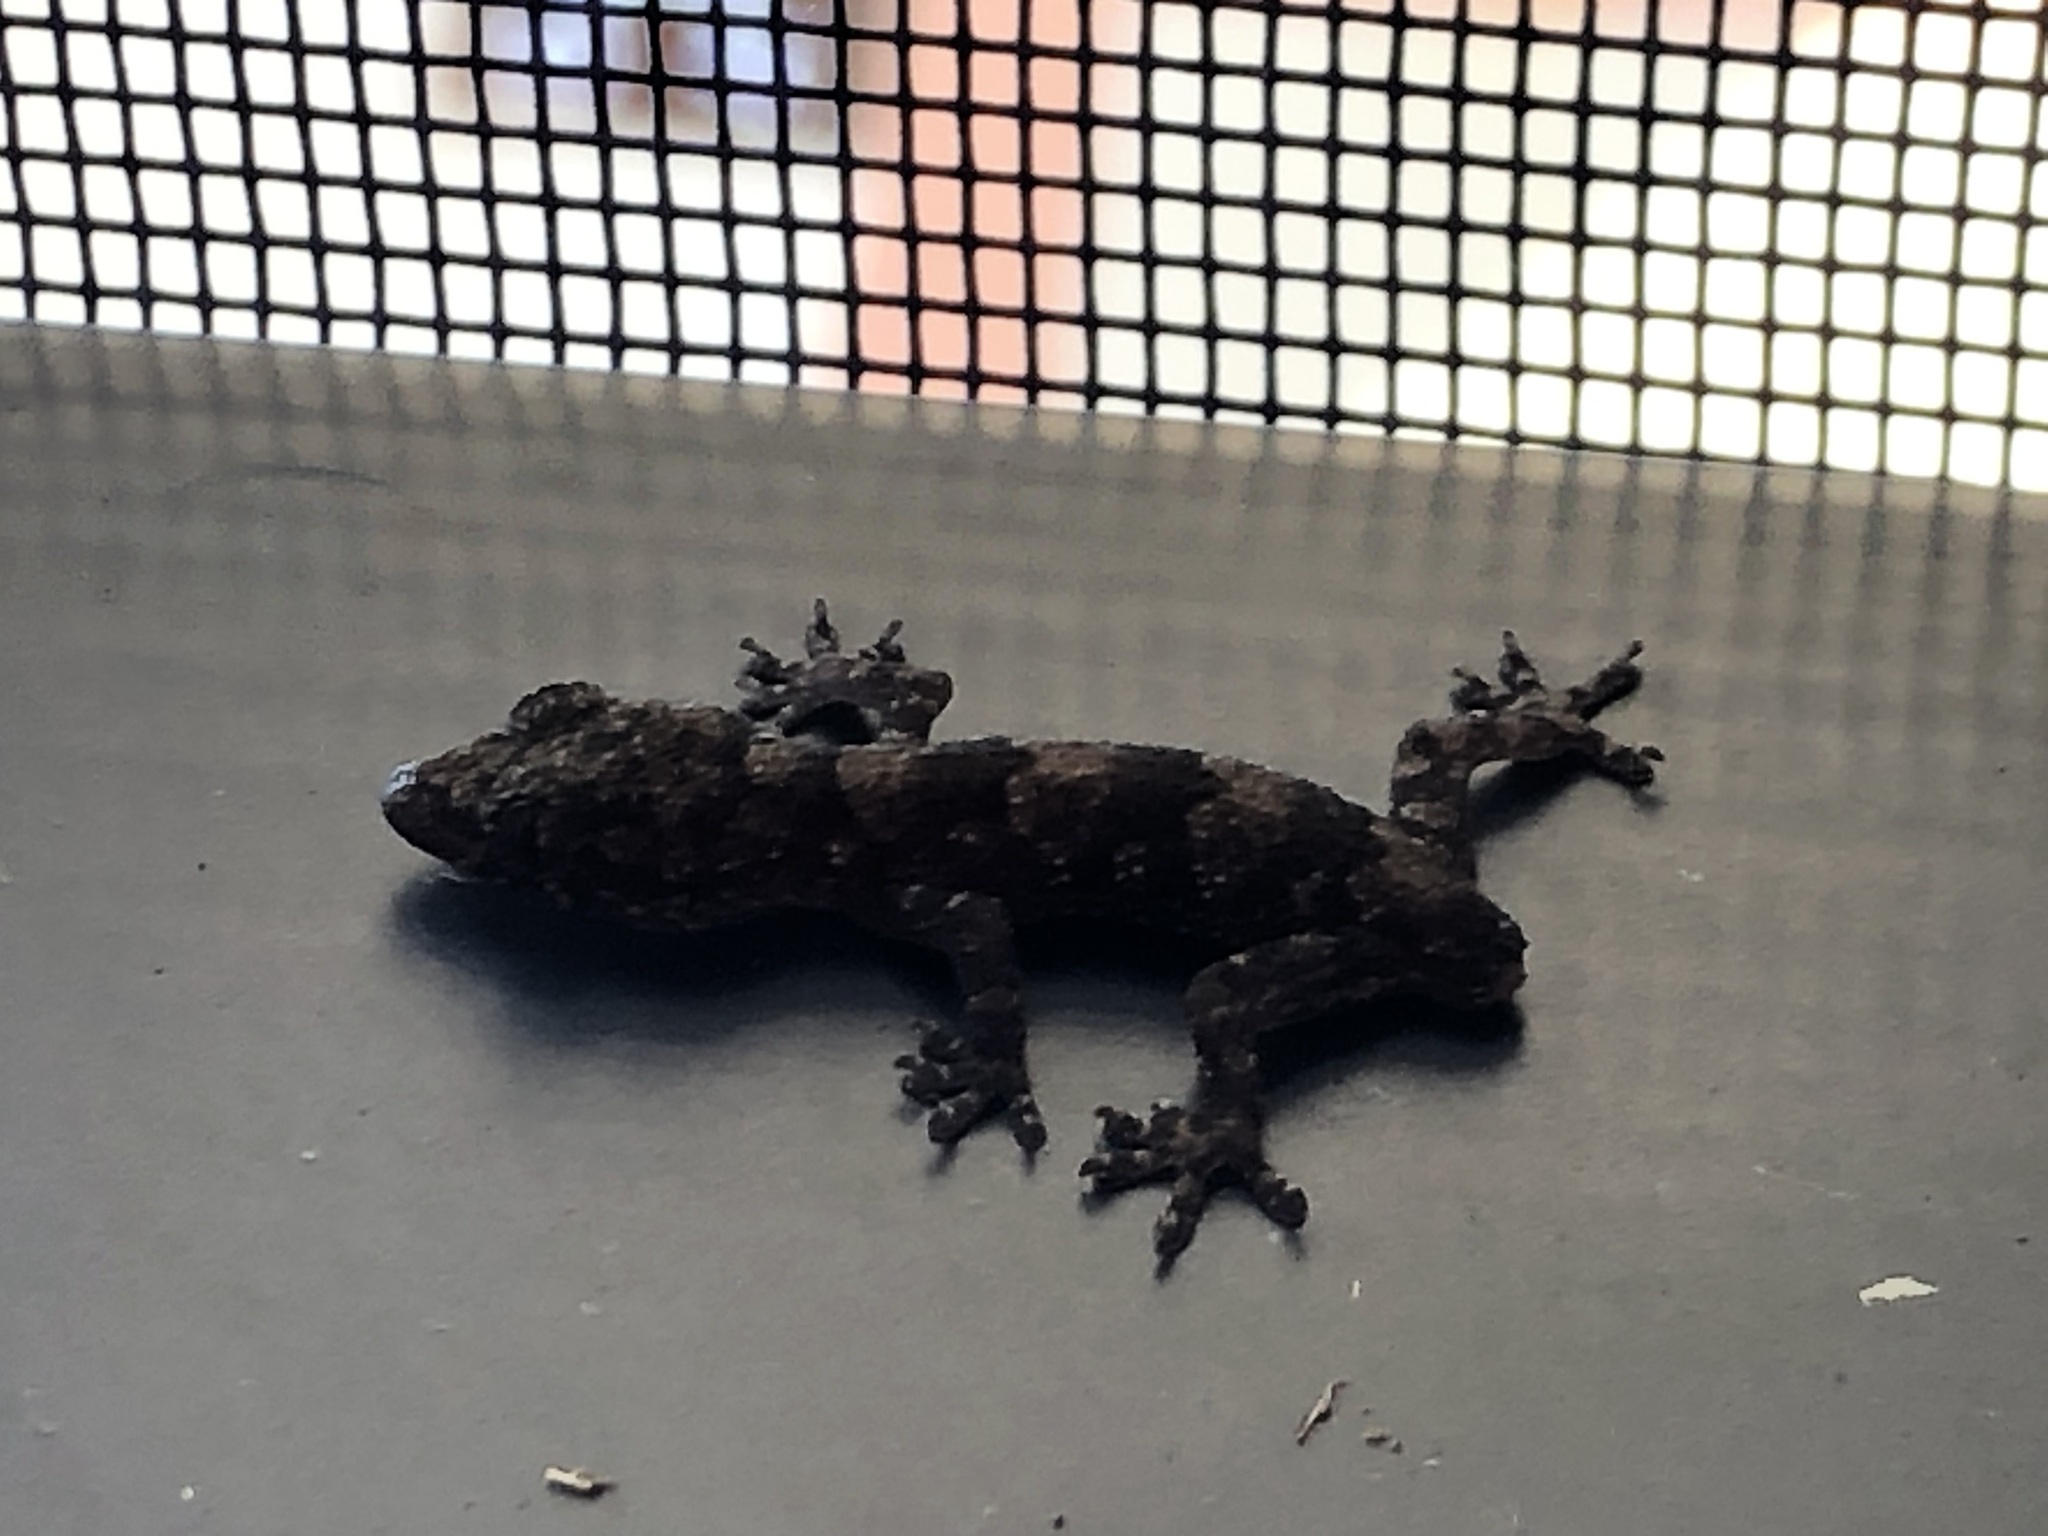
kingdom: Animalia
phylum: Chordata
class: Squamata
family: Gekkonidae
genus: Hemidactylus
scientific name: Hemidactylus mabouia
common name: House gecko
